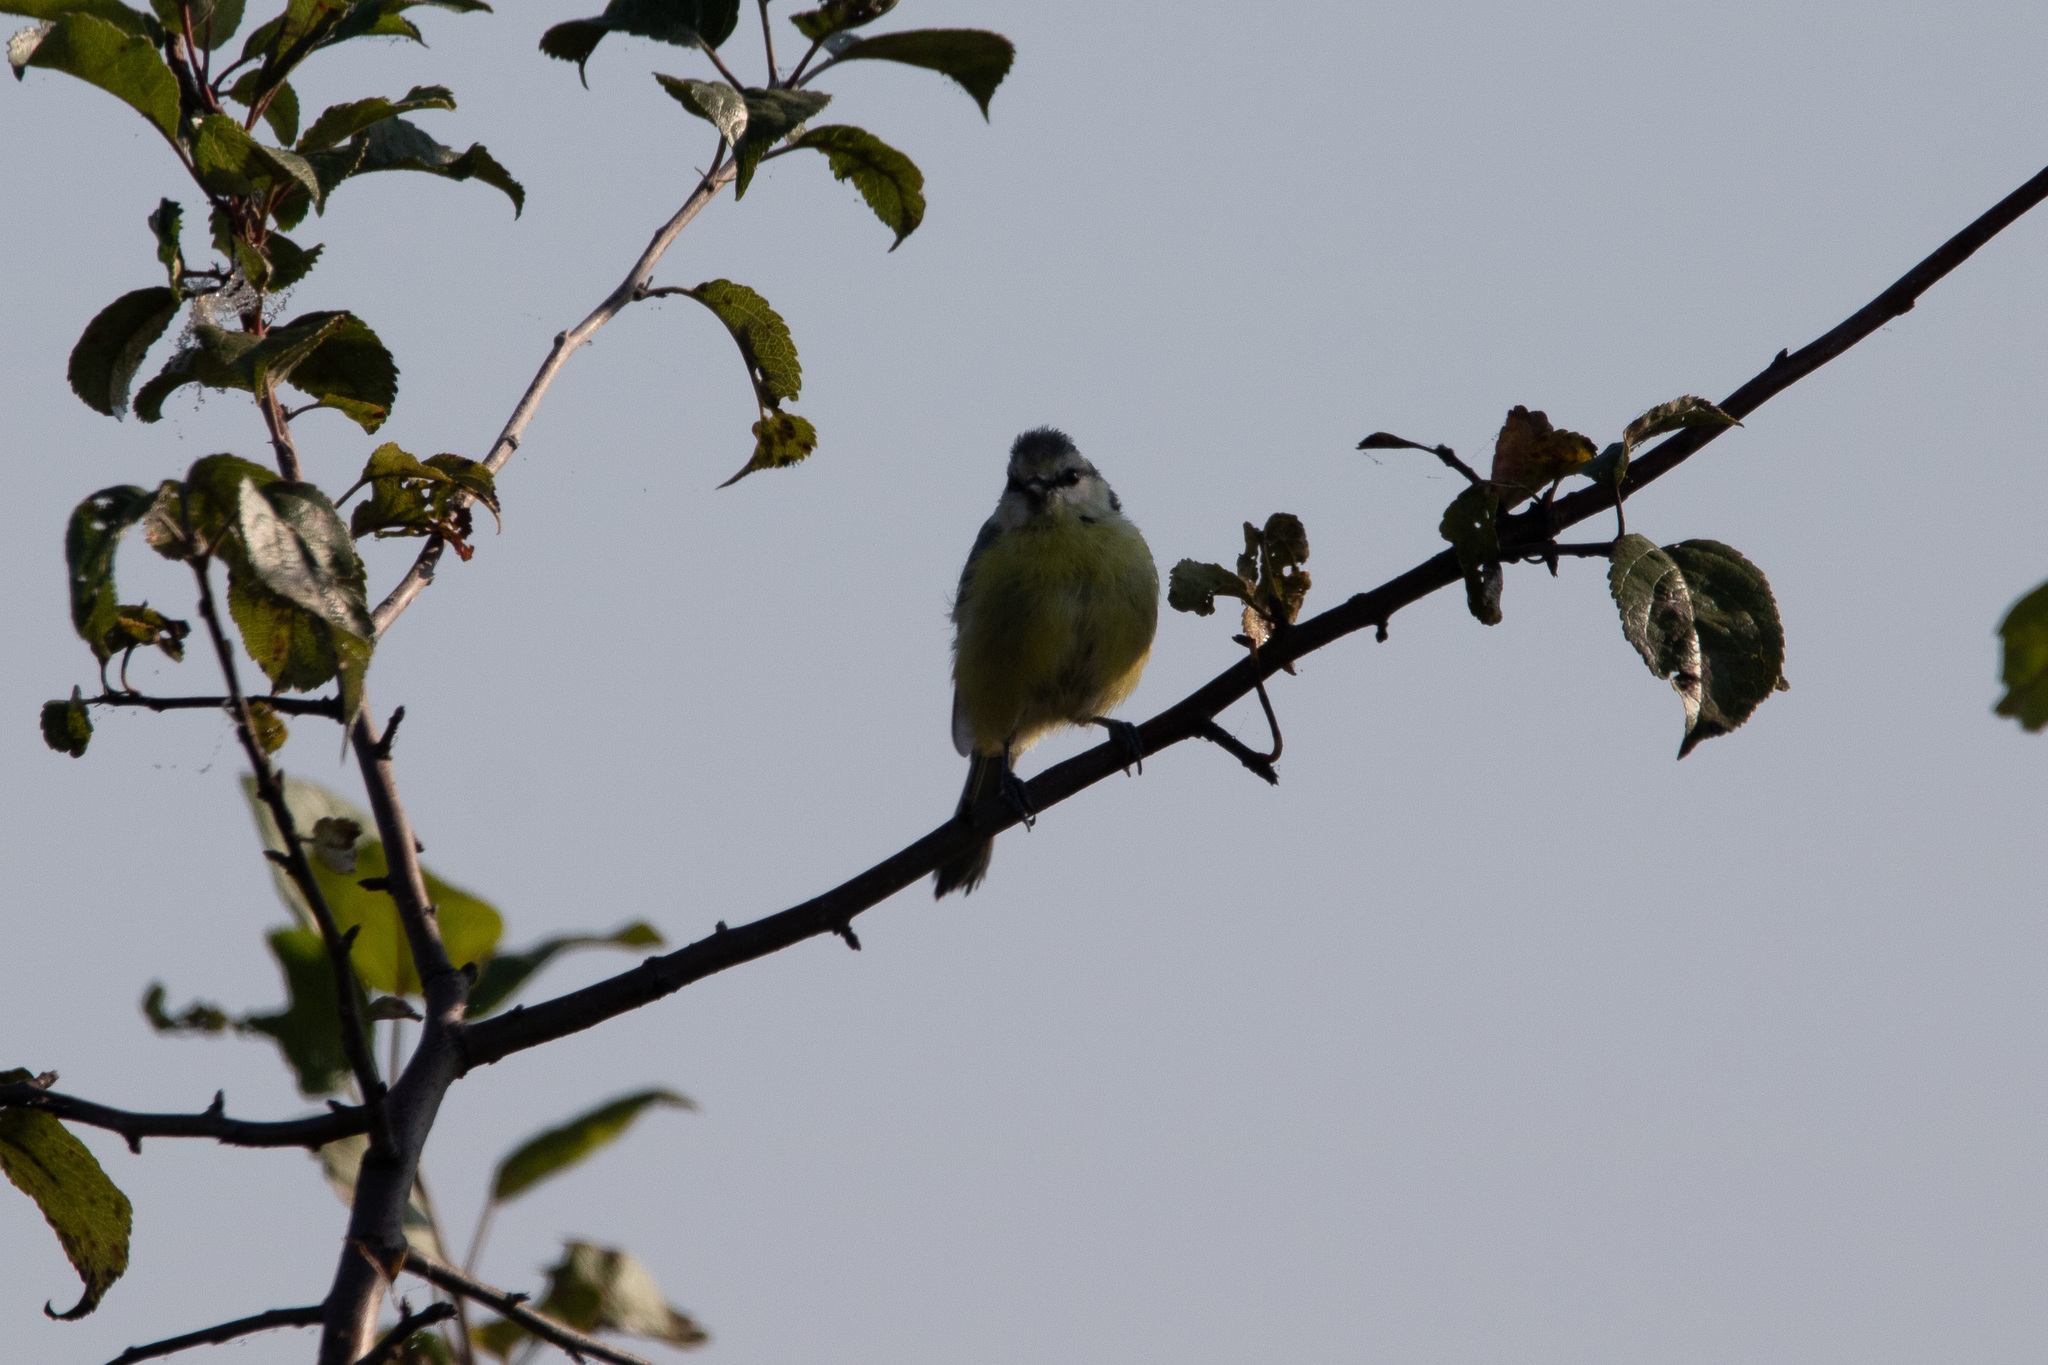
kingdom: Animalia
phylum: Chordata
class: Aves
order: Passeriformes
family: Paridae
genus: Cyanistes
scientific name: Cyanistes caeruleus
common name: Eurasian blue tit
